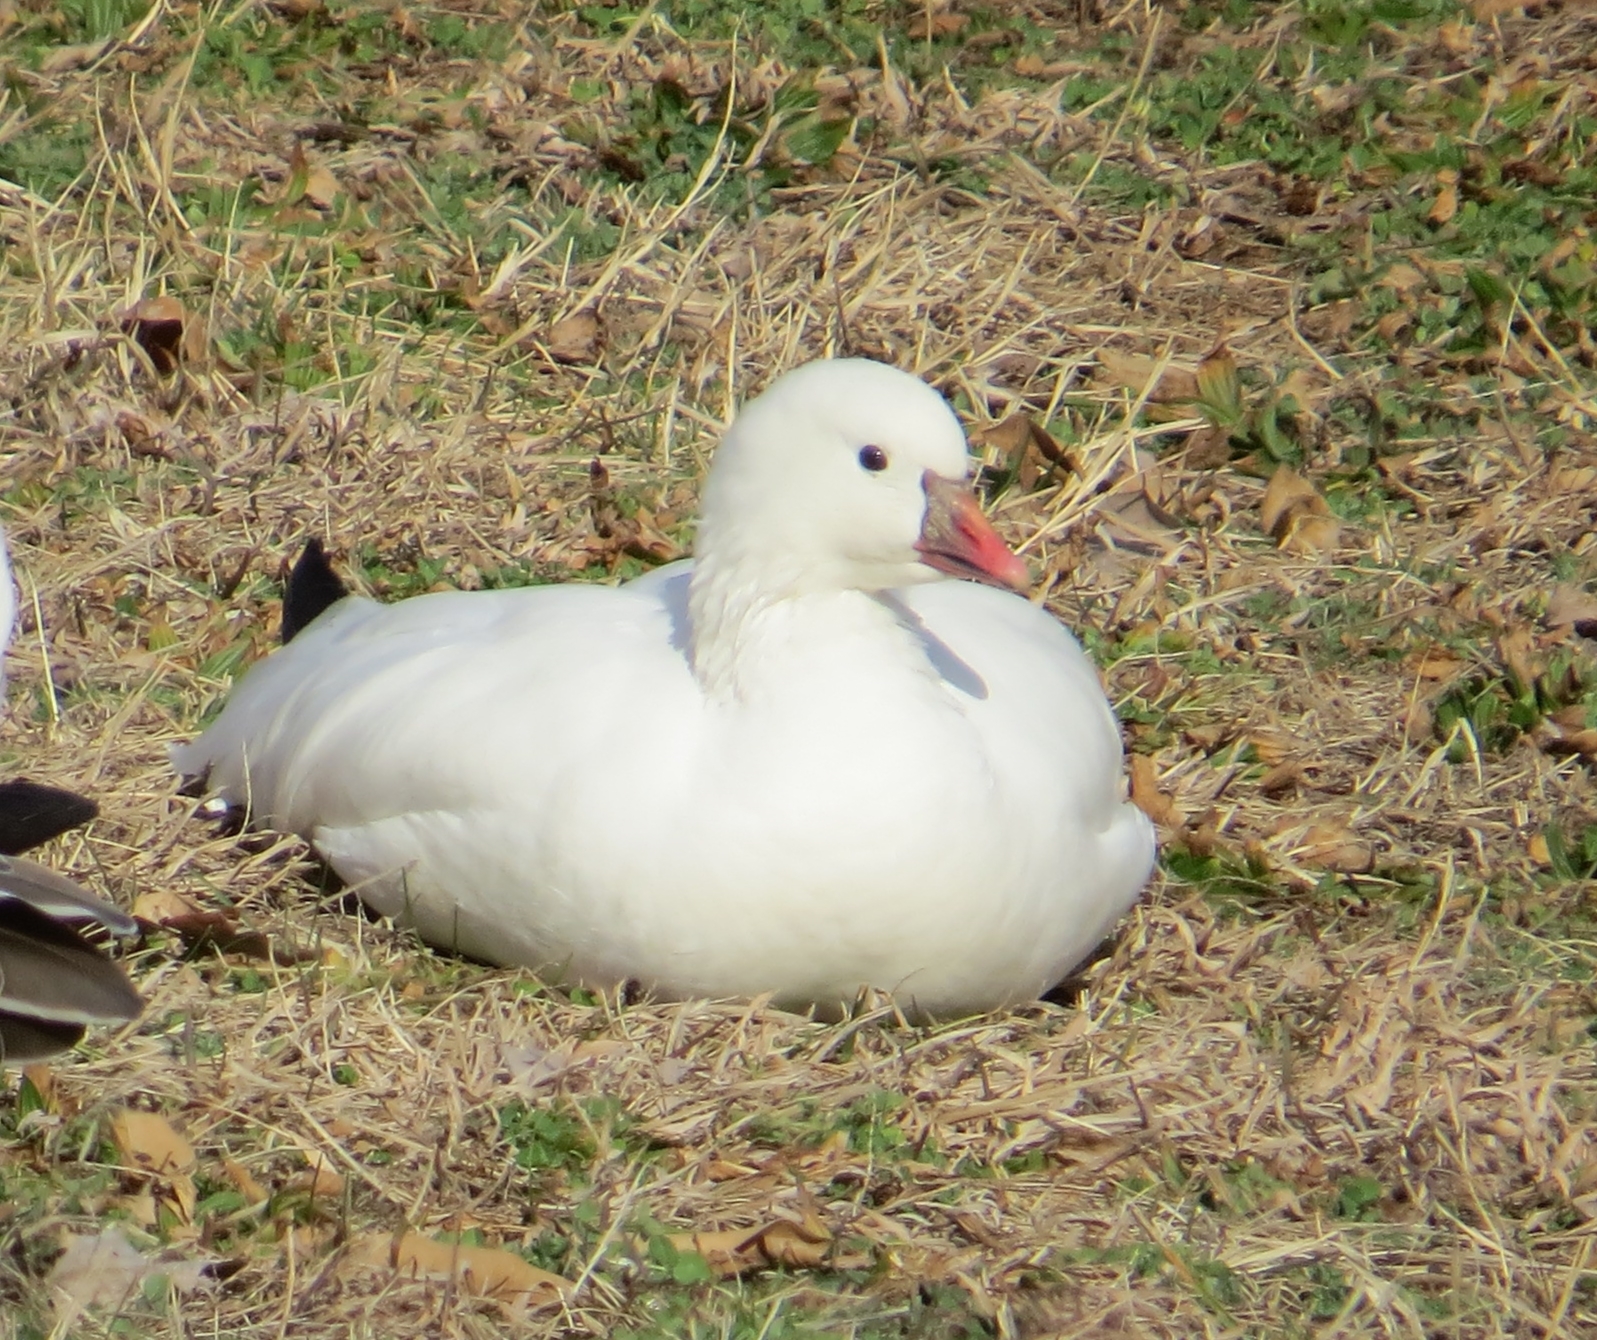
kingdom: Animalia
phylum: Chordata
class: Aves
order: Anseriformes
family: Anatidae
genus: Anser
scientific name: Anser rossii
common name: Ross's goose
